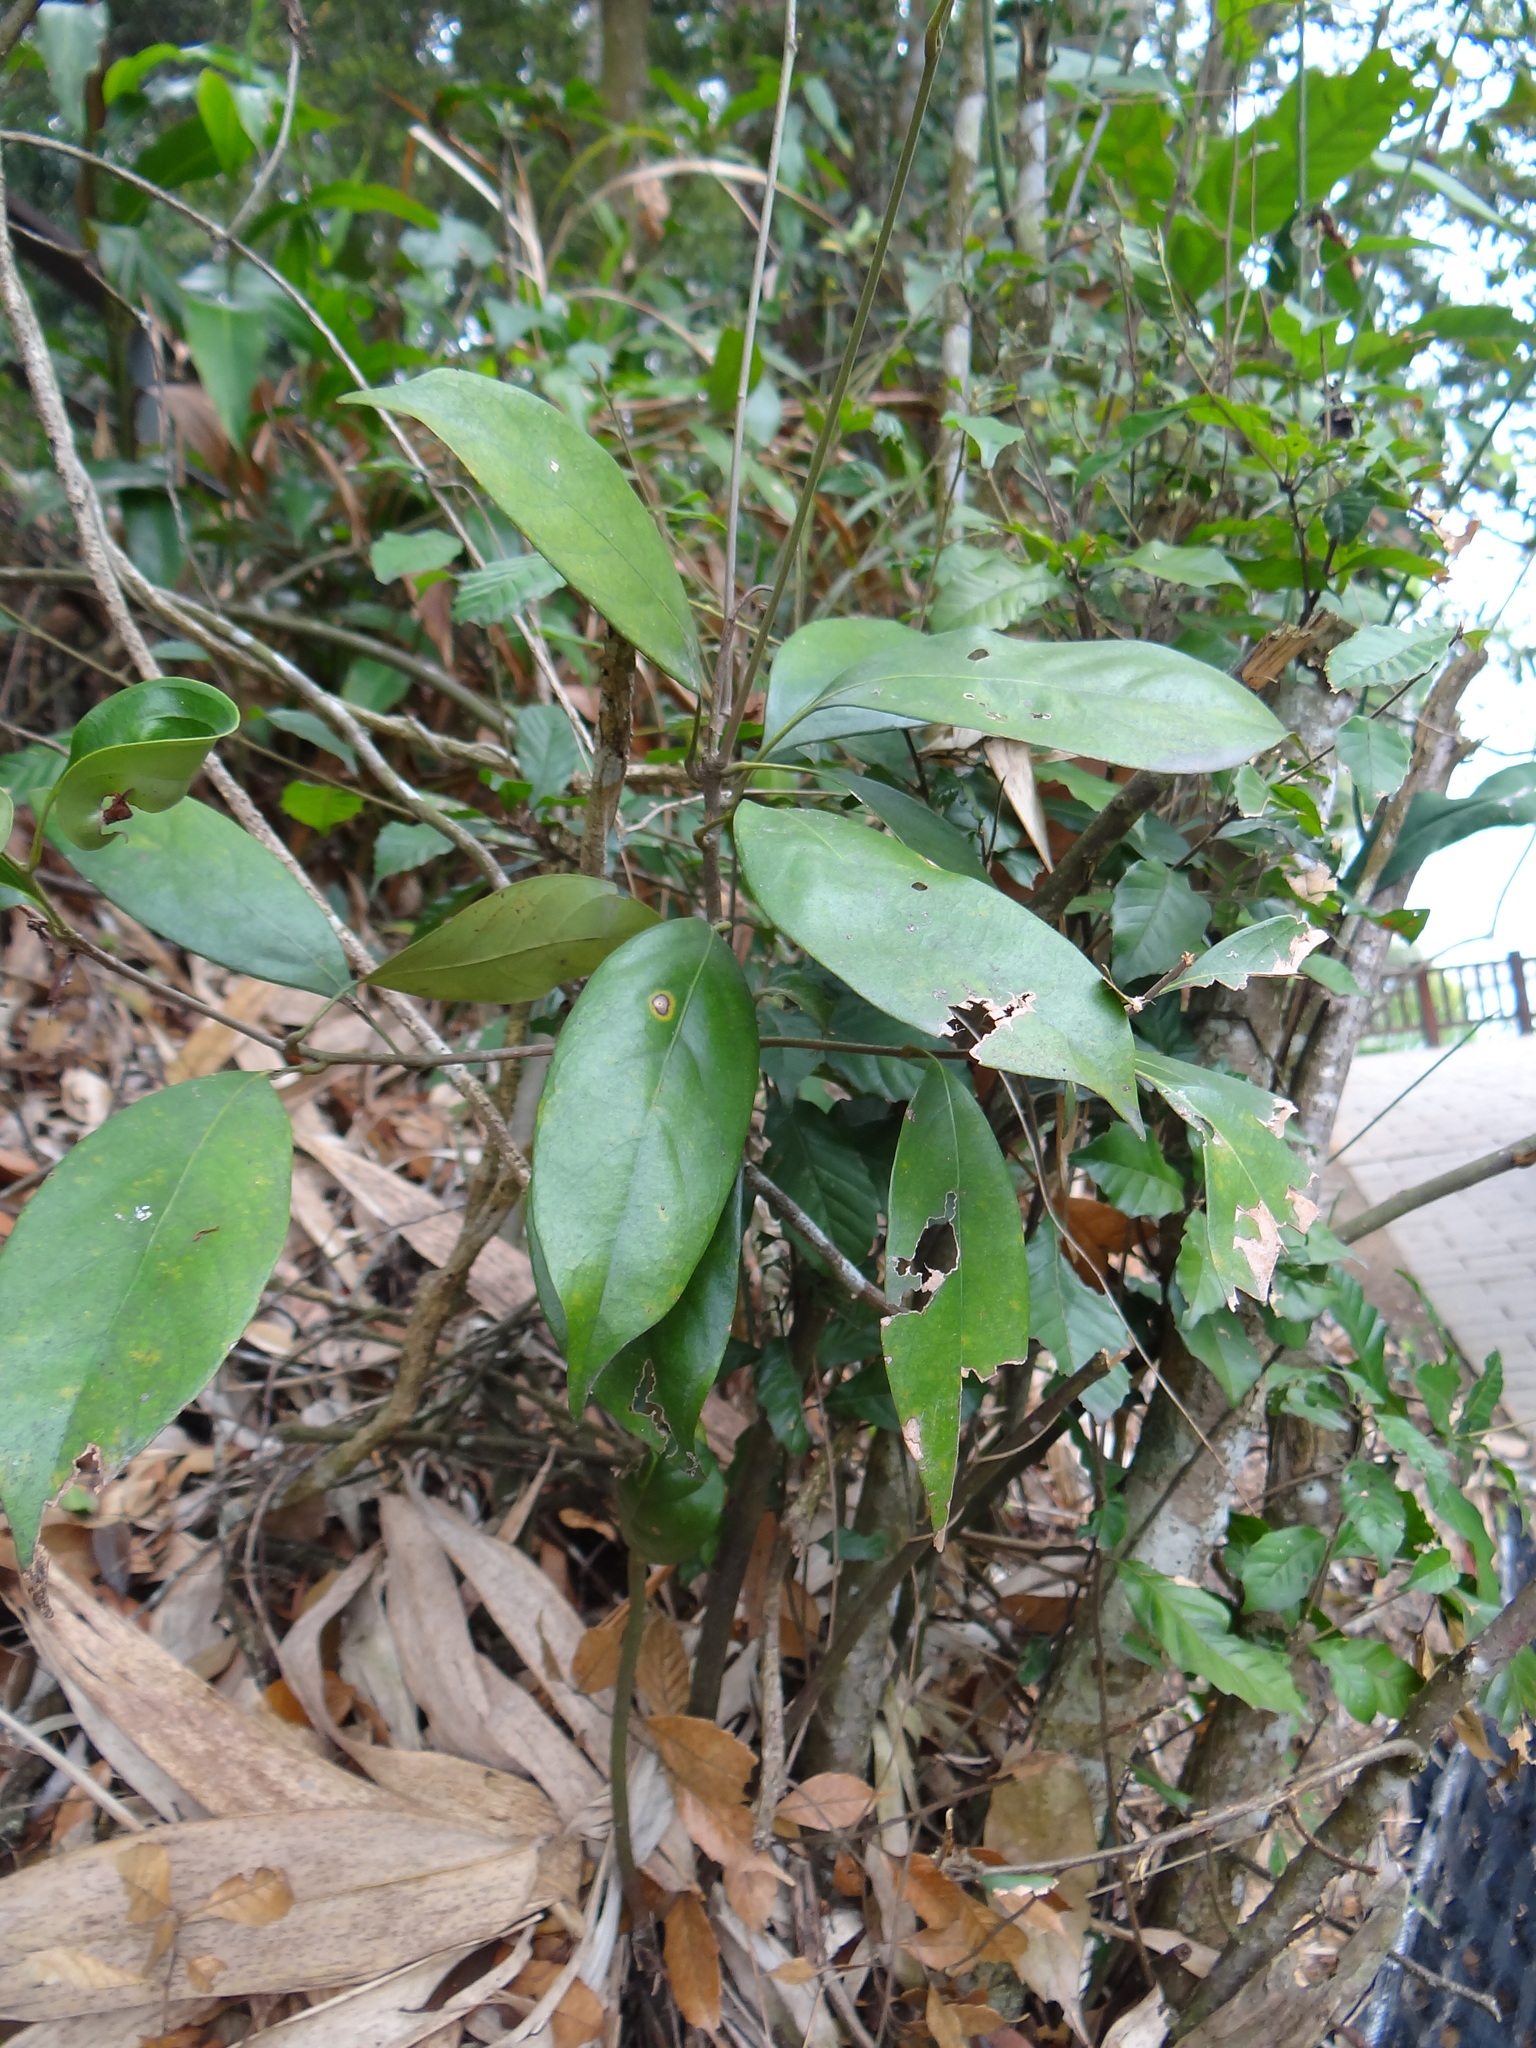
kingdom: Plantae
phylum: Tracheophyta
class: Magnoliopsida
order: Fagales
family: Fagaceae
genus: Lithocarpus
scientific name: Lithocarpus taitoensis
